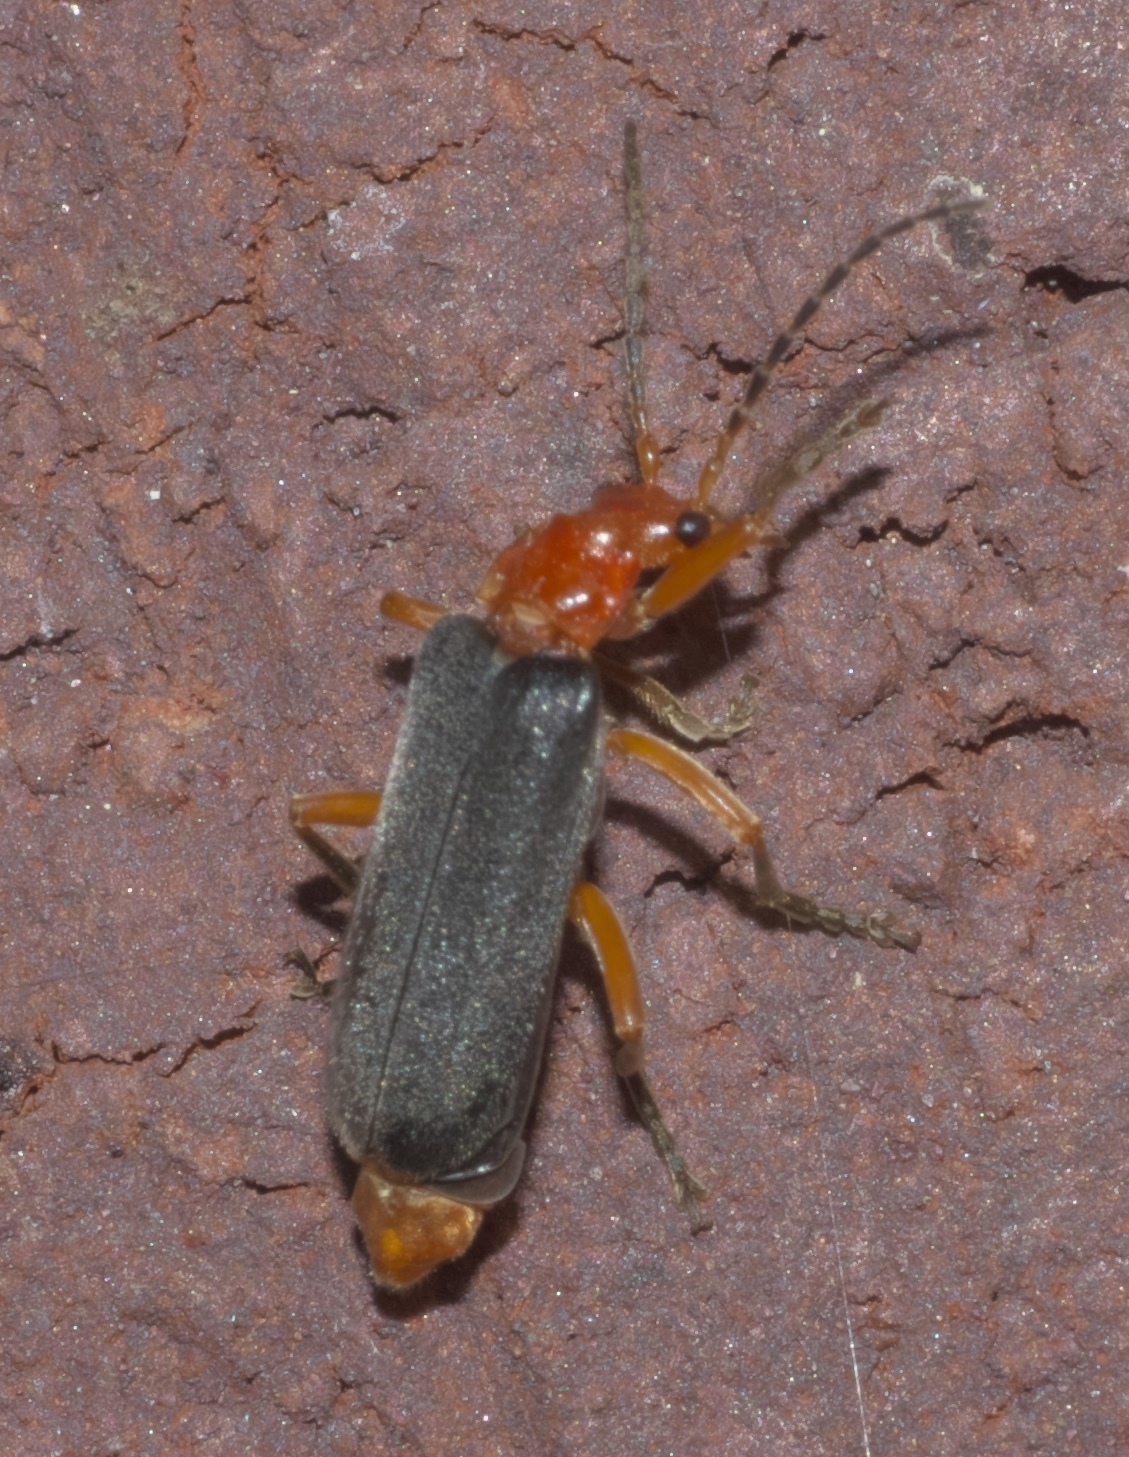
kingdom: Animalia
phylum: Arthropoda
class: Insecta
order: Coleoptera
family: Cantharidae
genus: Podabrus
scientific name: Podabrus tomentosus
